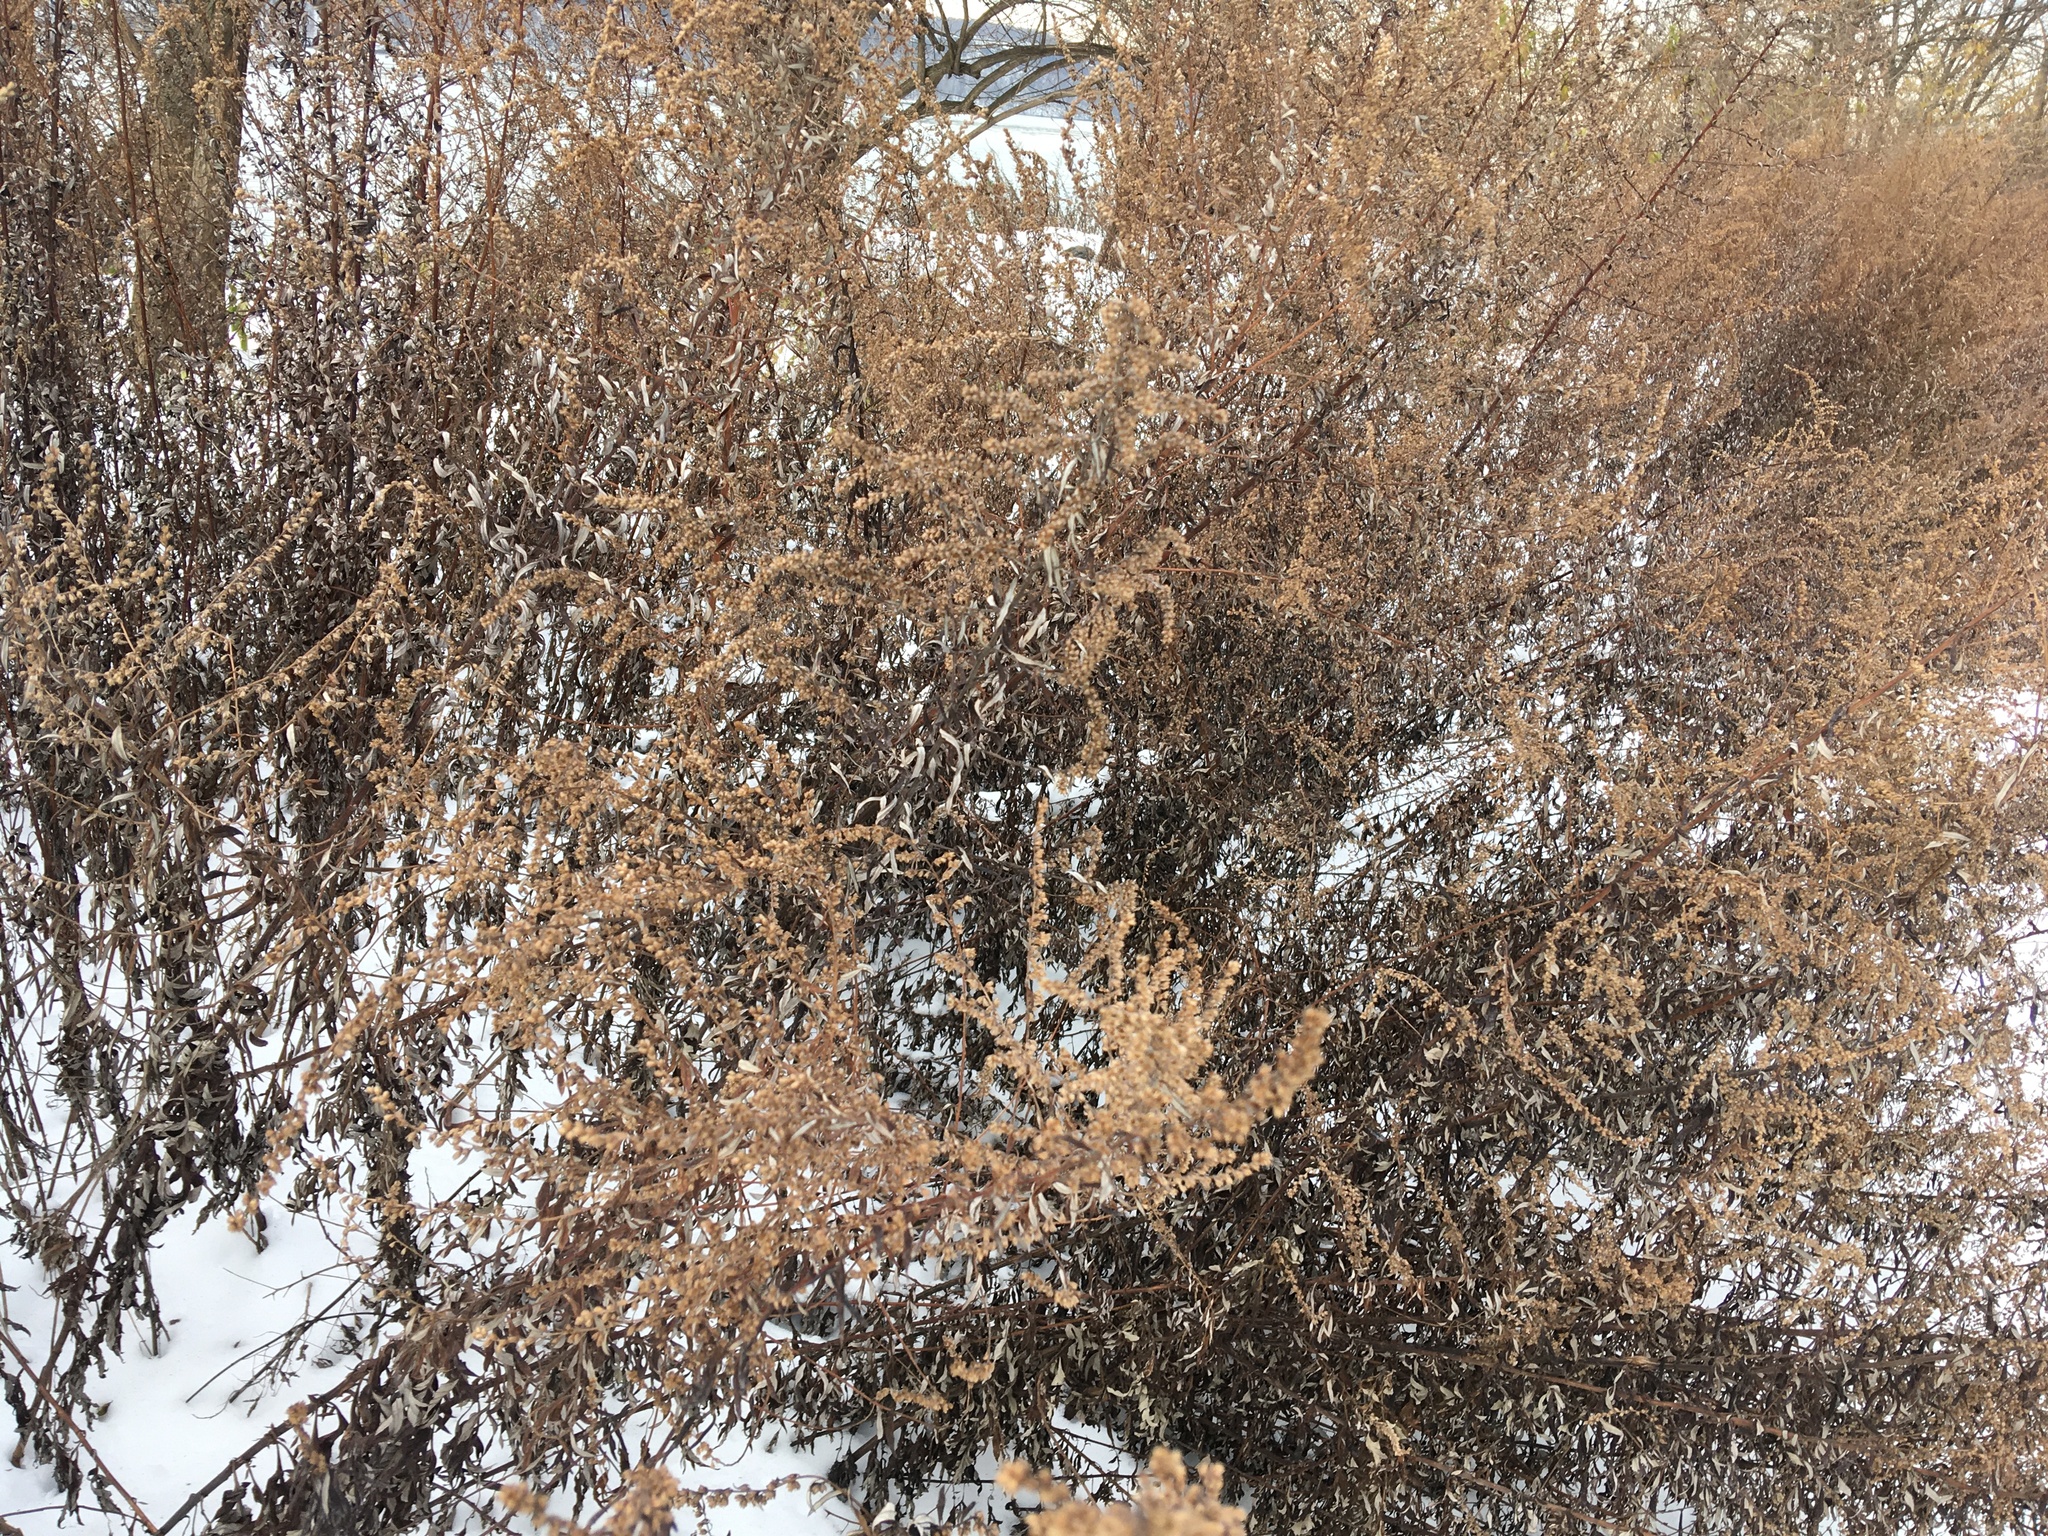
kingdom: Plantae
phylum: Tracheophyta
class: Magnoliopsida
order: Asterales
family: Asteraceae
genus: Artemisia
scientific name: Artemisia vulgaris
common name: Mugwort
